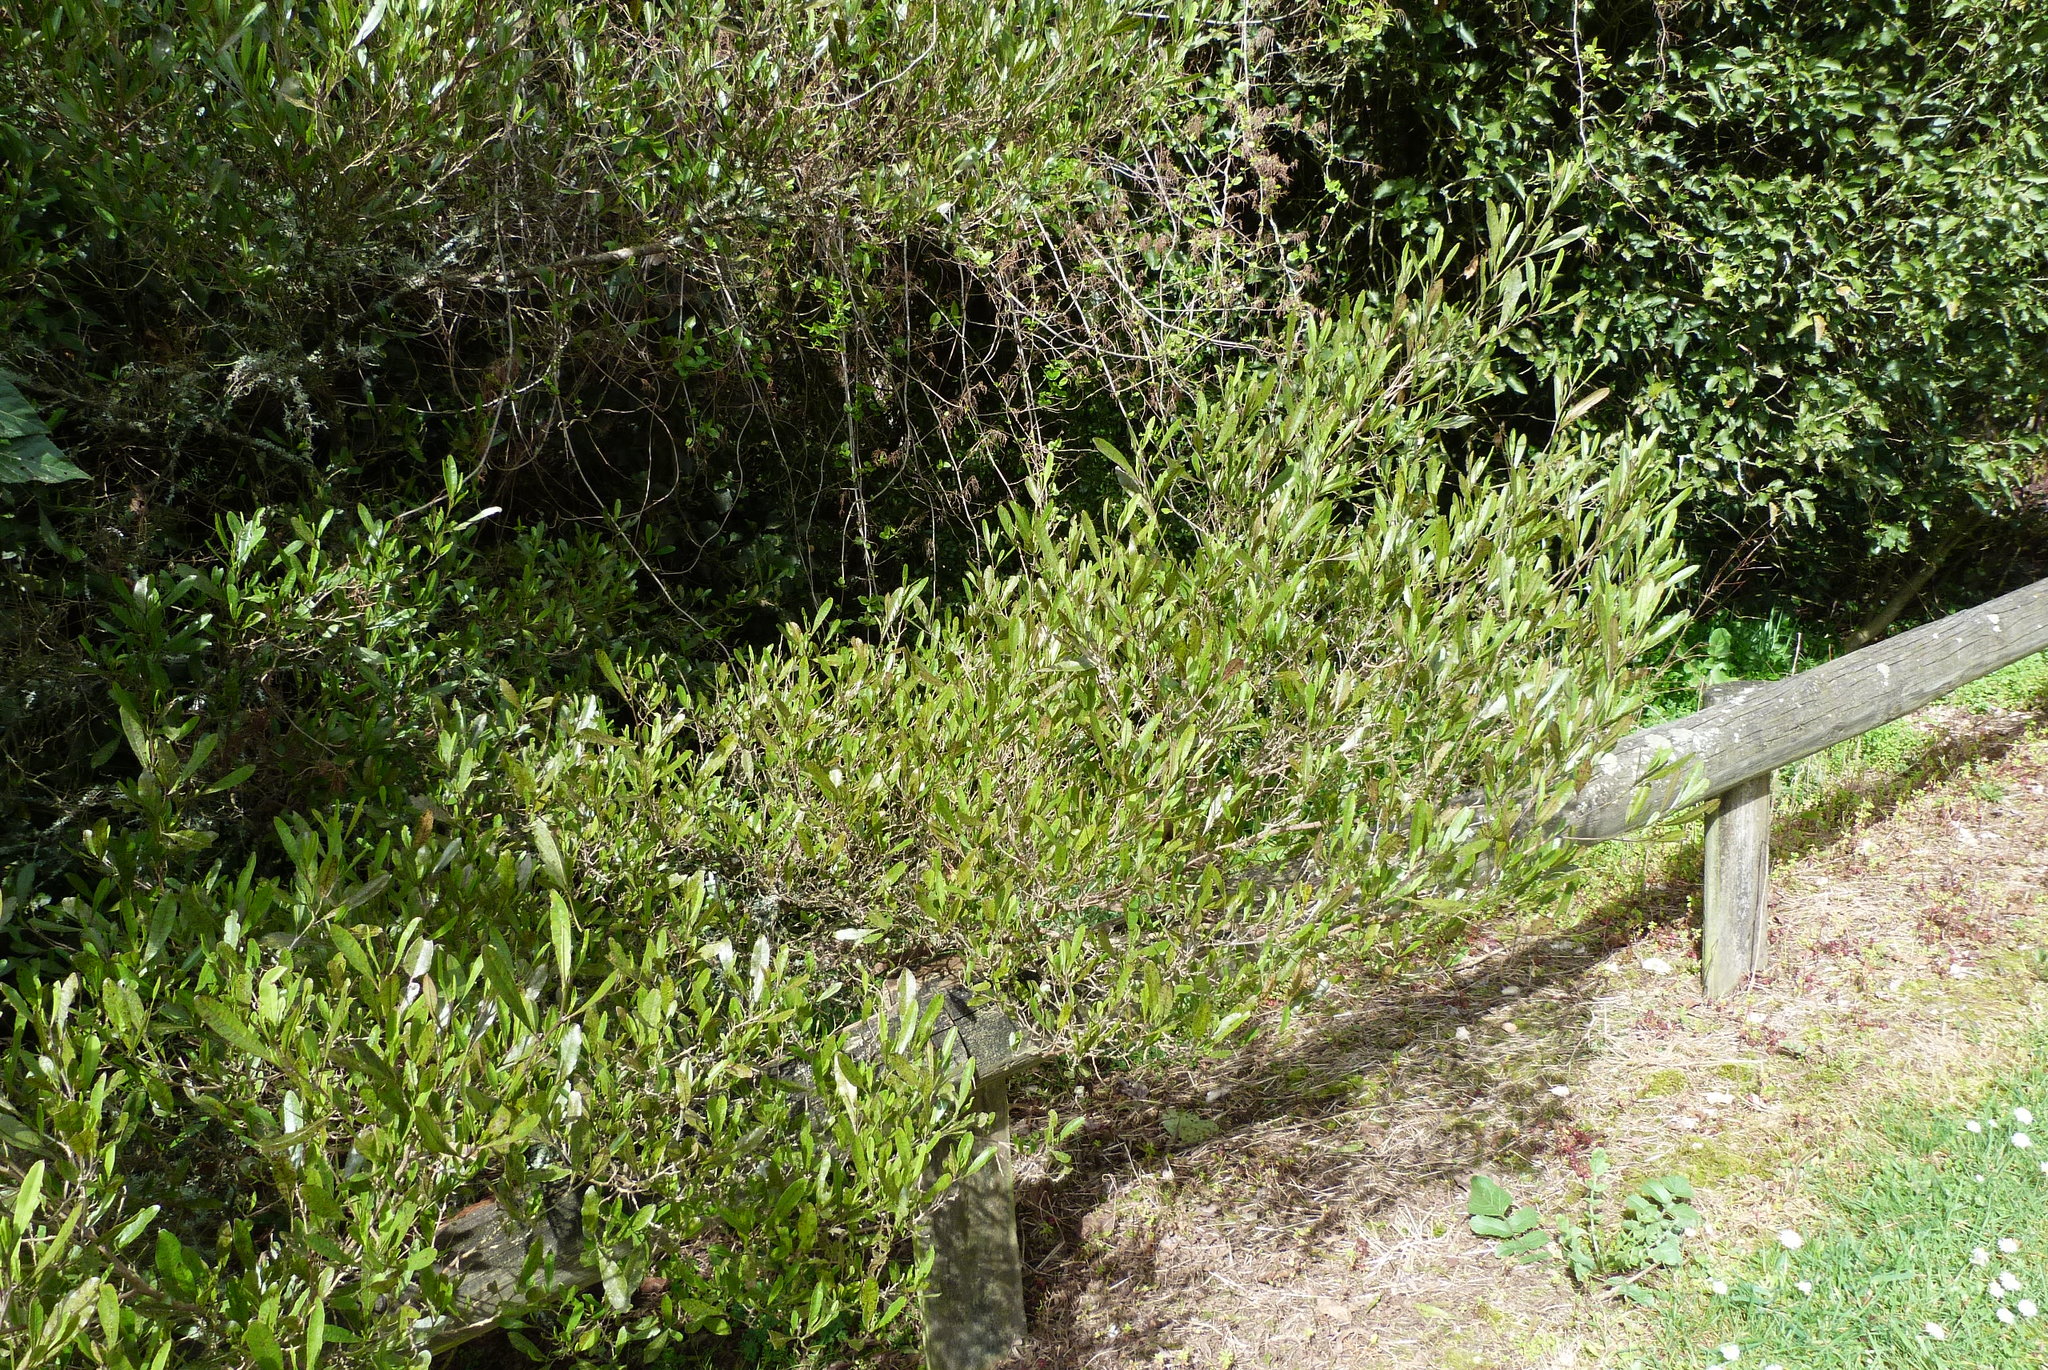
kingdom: Plantae
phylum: Tracheophyta
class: Magnoliopsida
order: Sapindales
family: Sapindaceae
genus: Dodonaea
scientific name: Dodonaea viscosa
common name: Hopbush
